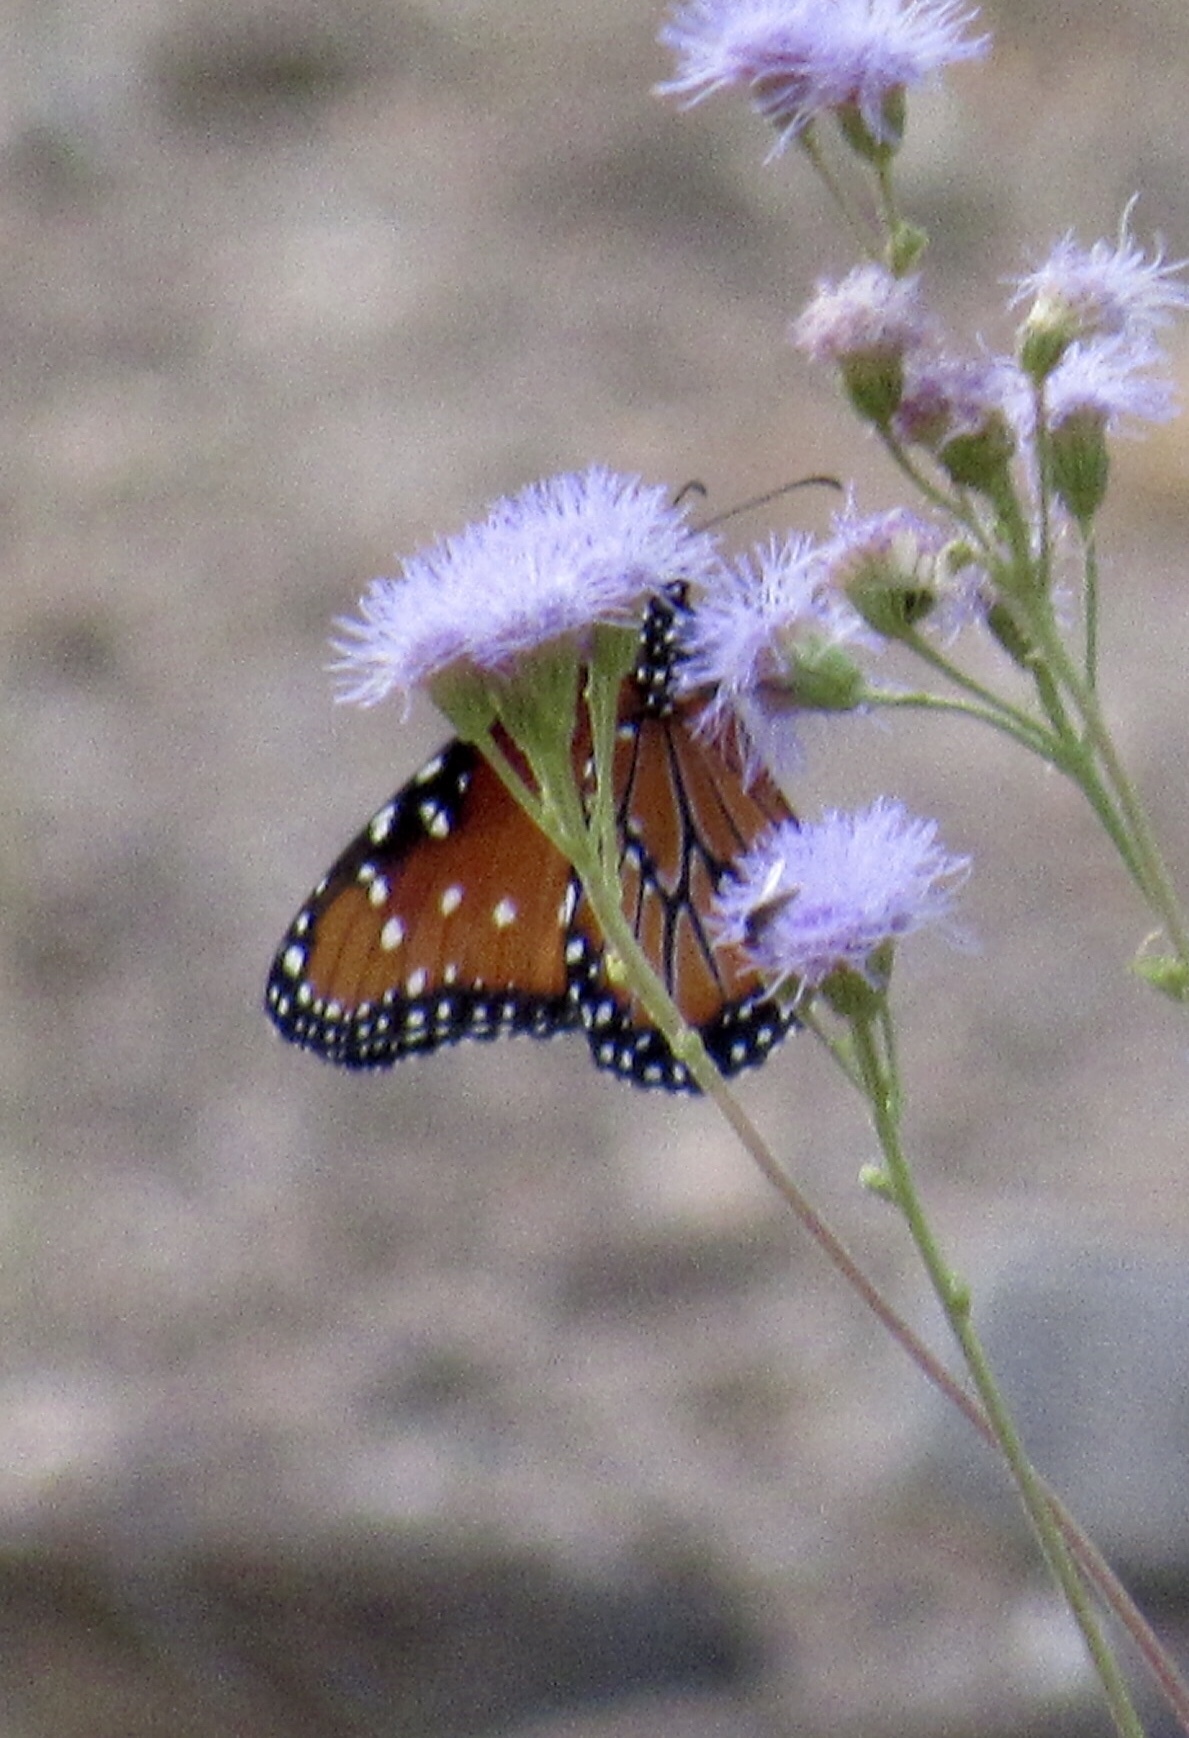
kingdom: Animalia
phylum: Arthropoda
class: Insecta
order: Lepidoptera
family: Nymphalidae
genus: Danaus
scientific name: Danaus gilippus
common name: Queen
